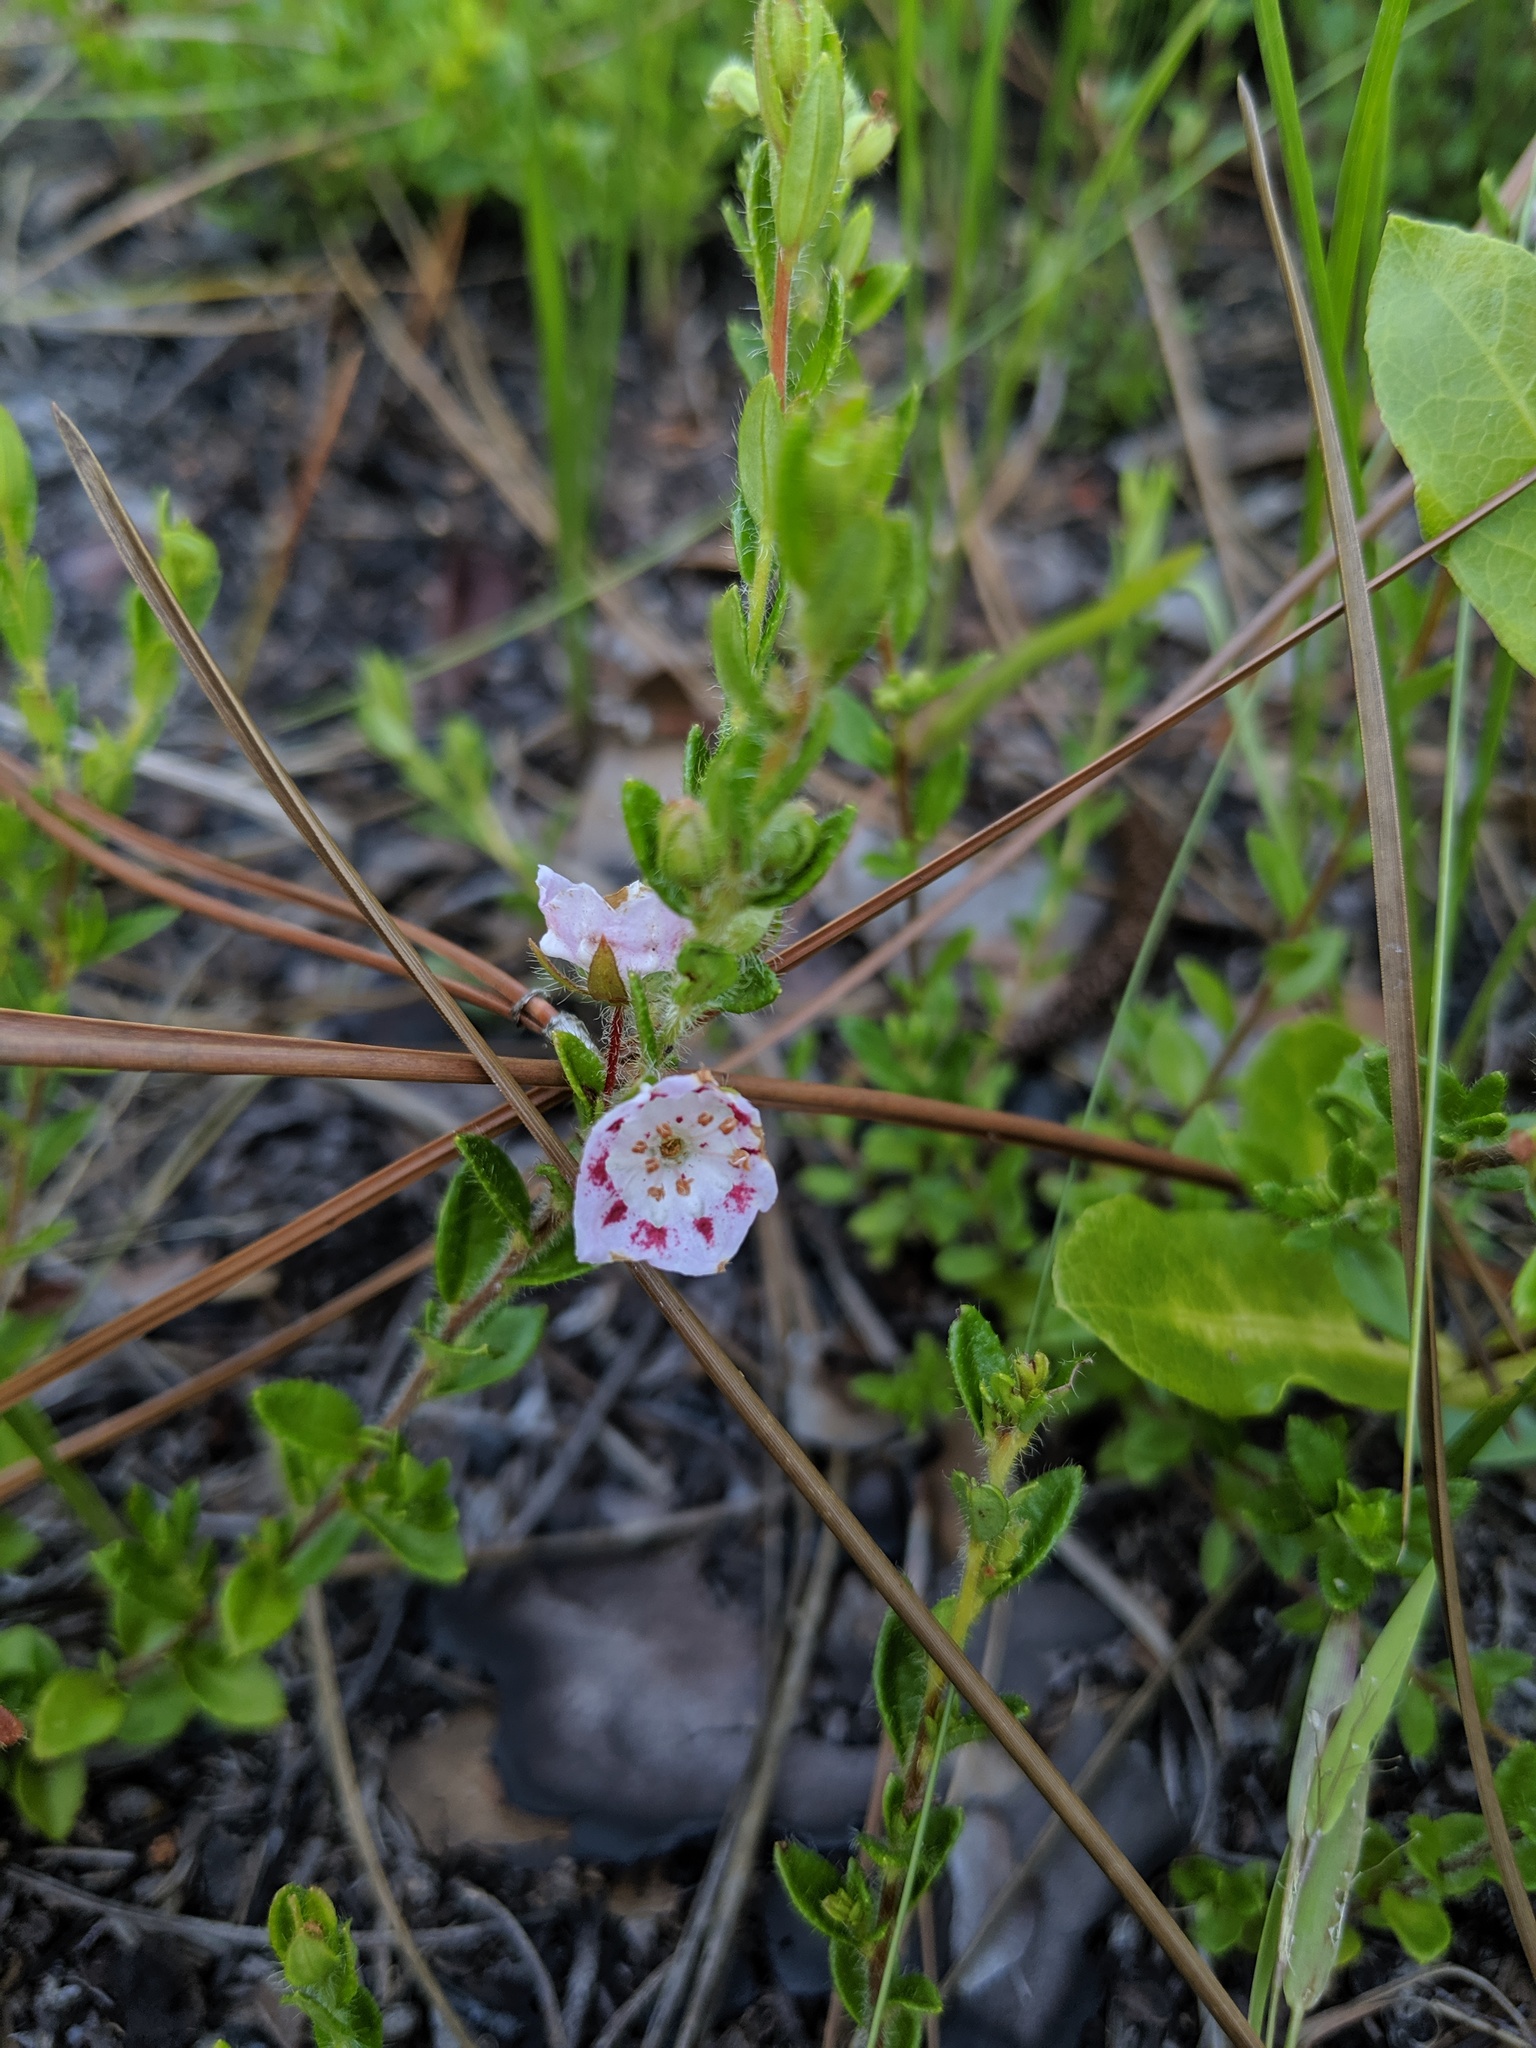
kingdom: Plantae
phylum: Tracheophyta
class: Magnoliopsida
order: Ericales
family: Ericaceae
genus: Kalmia
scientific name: Kalmia hirsuta
